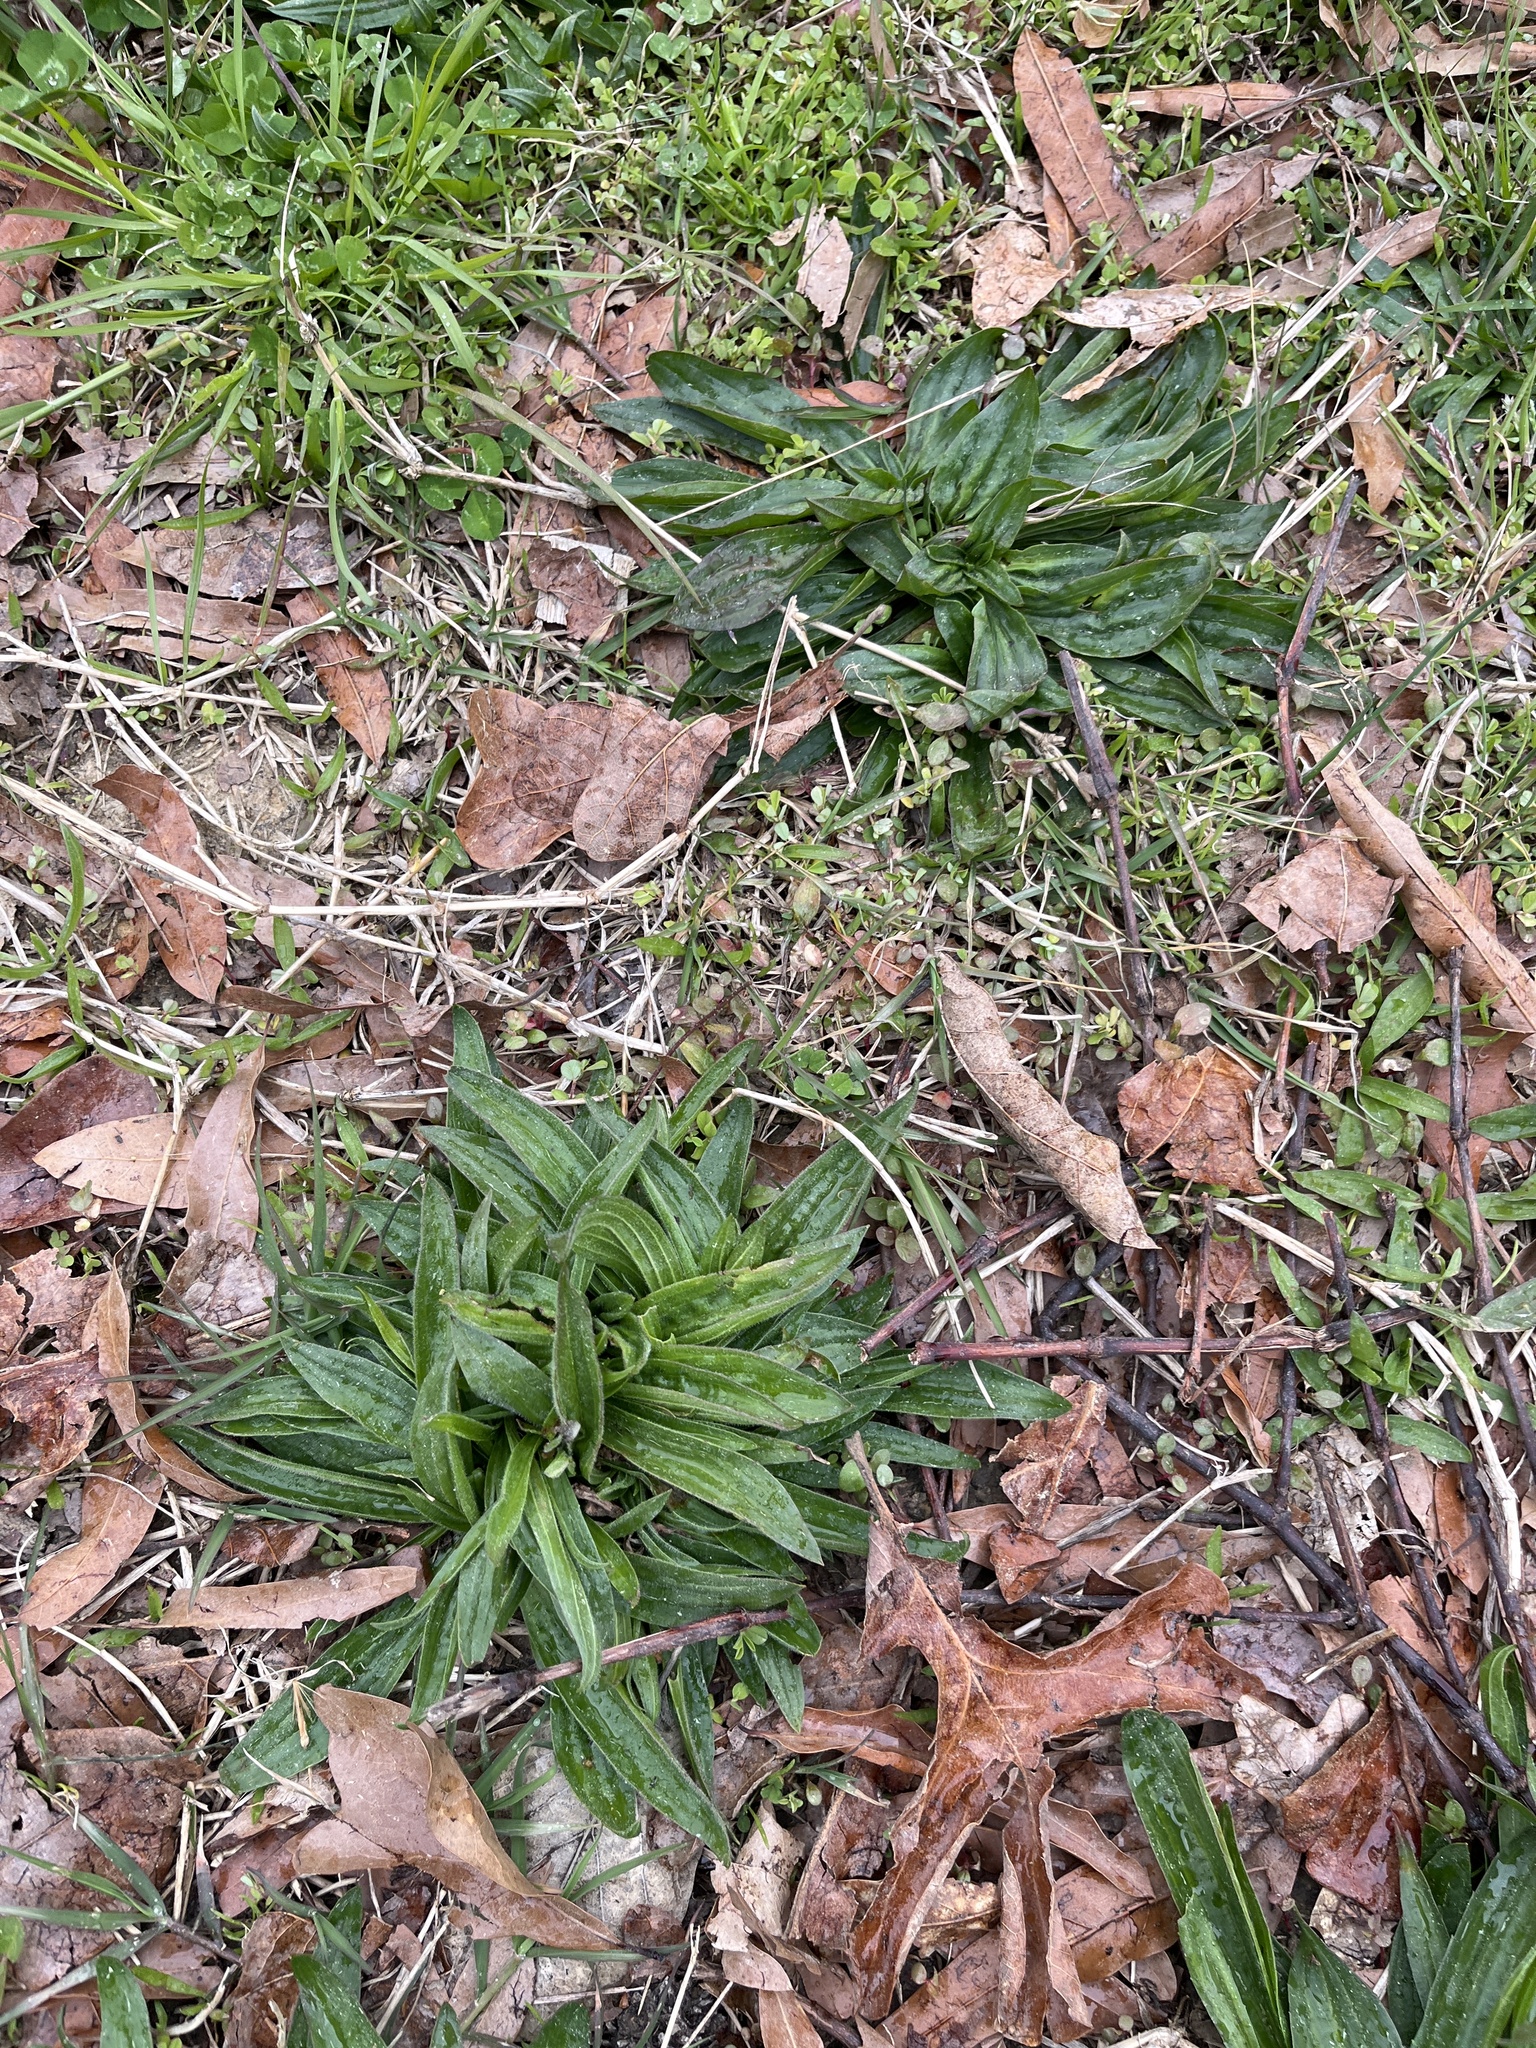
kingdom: Plantae
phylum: Tracheophyta
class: Magnoliopsida
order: Lamiales
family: Plantaginaceae
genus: Plantago
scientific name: Plantago lanceolata
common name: Ribwort plantain
